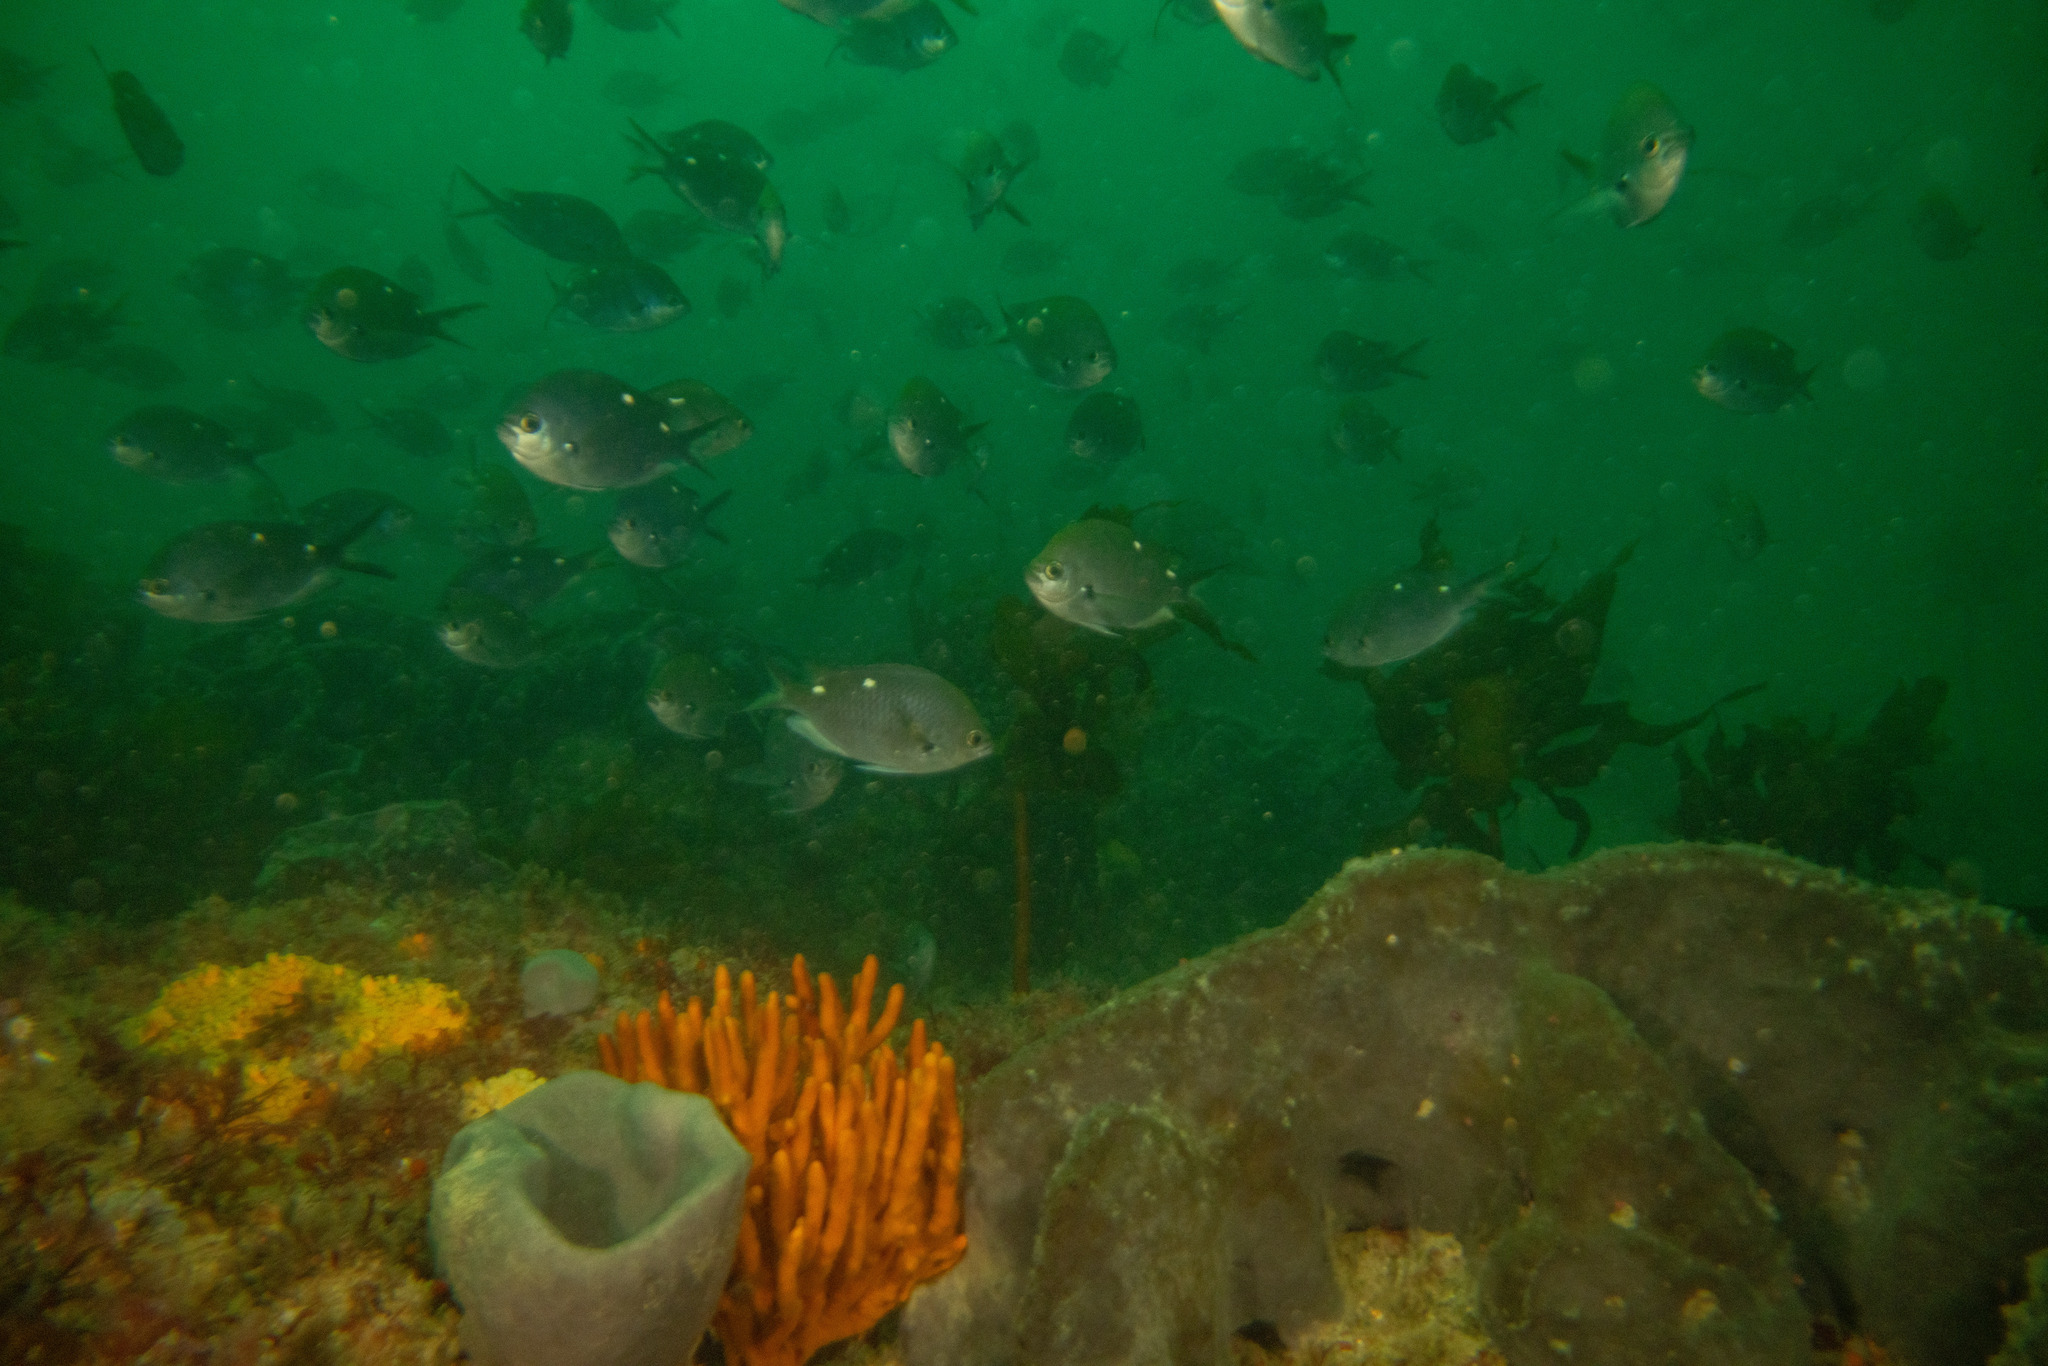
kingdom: Animalia
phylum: Chordata
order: Perciformes
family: Pomacentridae
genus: Chromis
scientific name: Chromis dispilus
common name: Demoiselle
